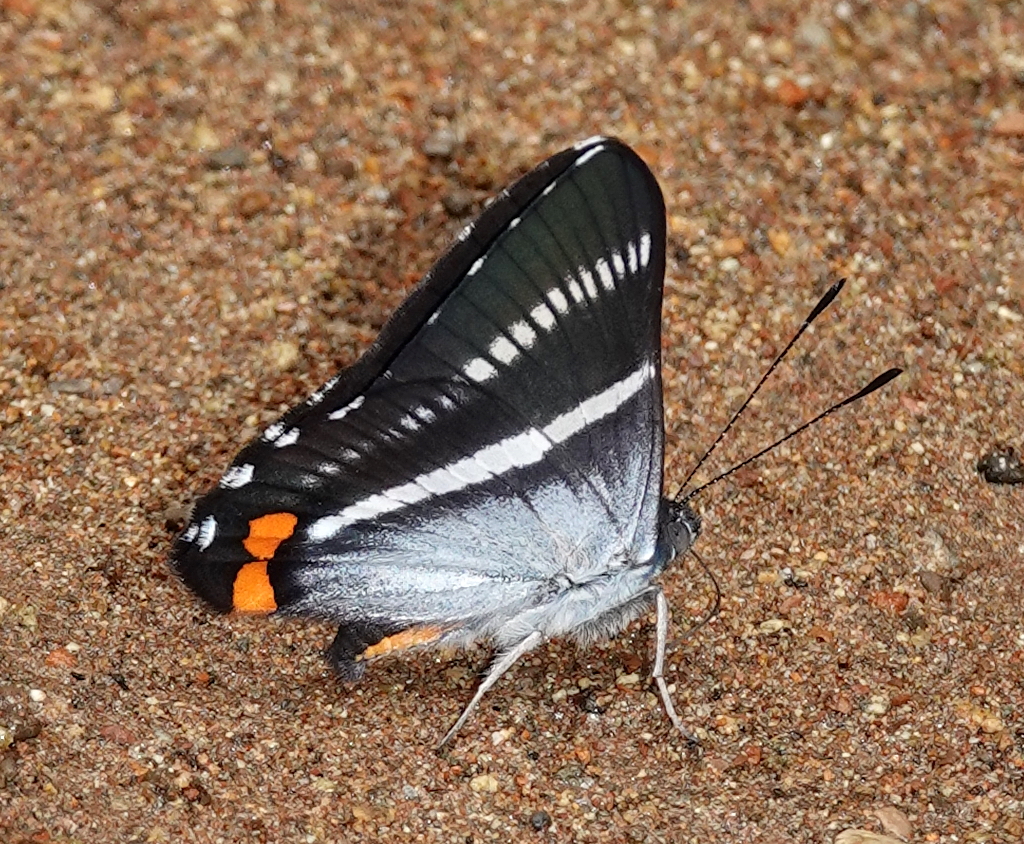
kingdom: Animalia
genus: Siseme
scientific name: Siseme aristoteles
